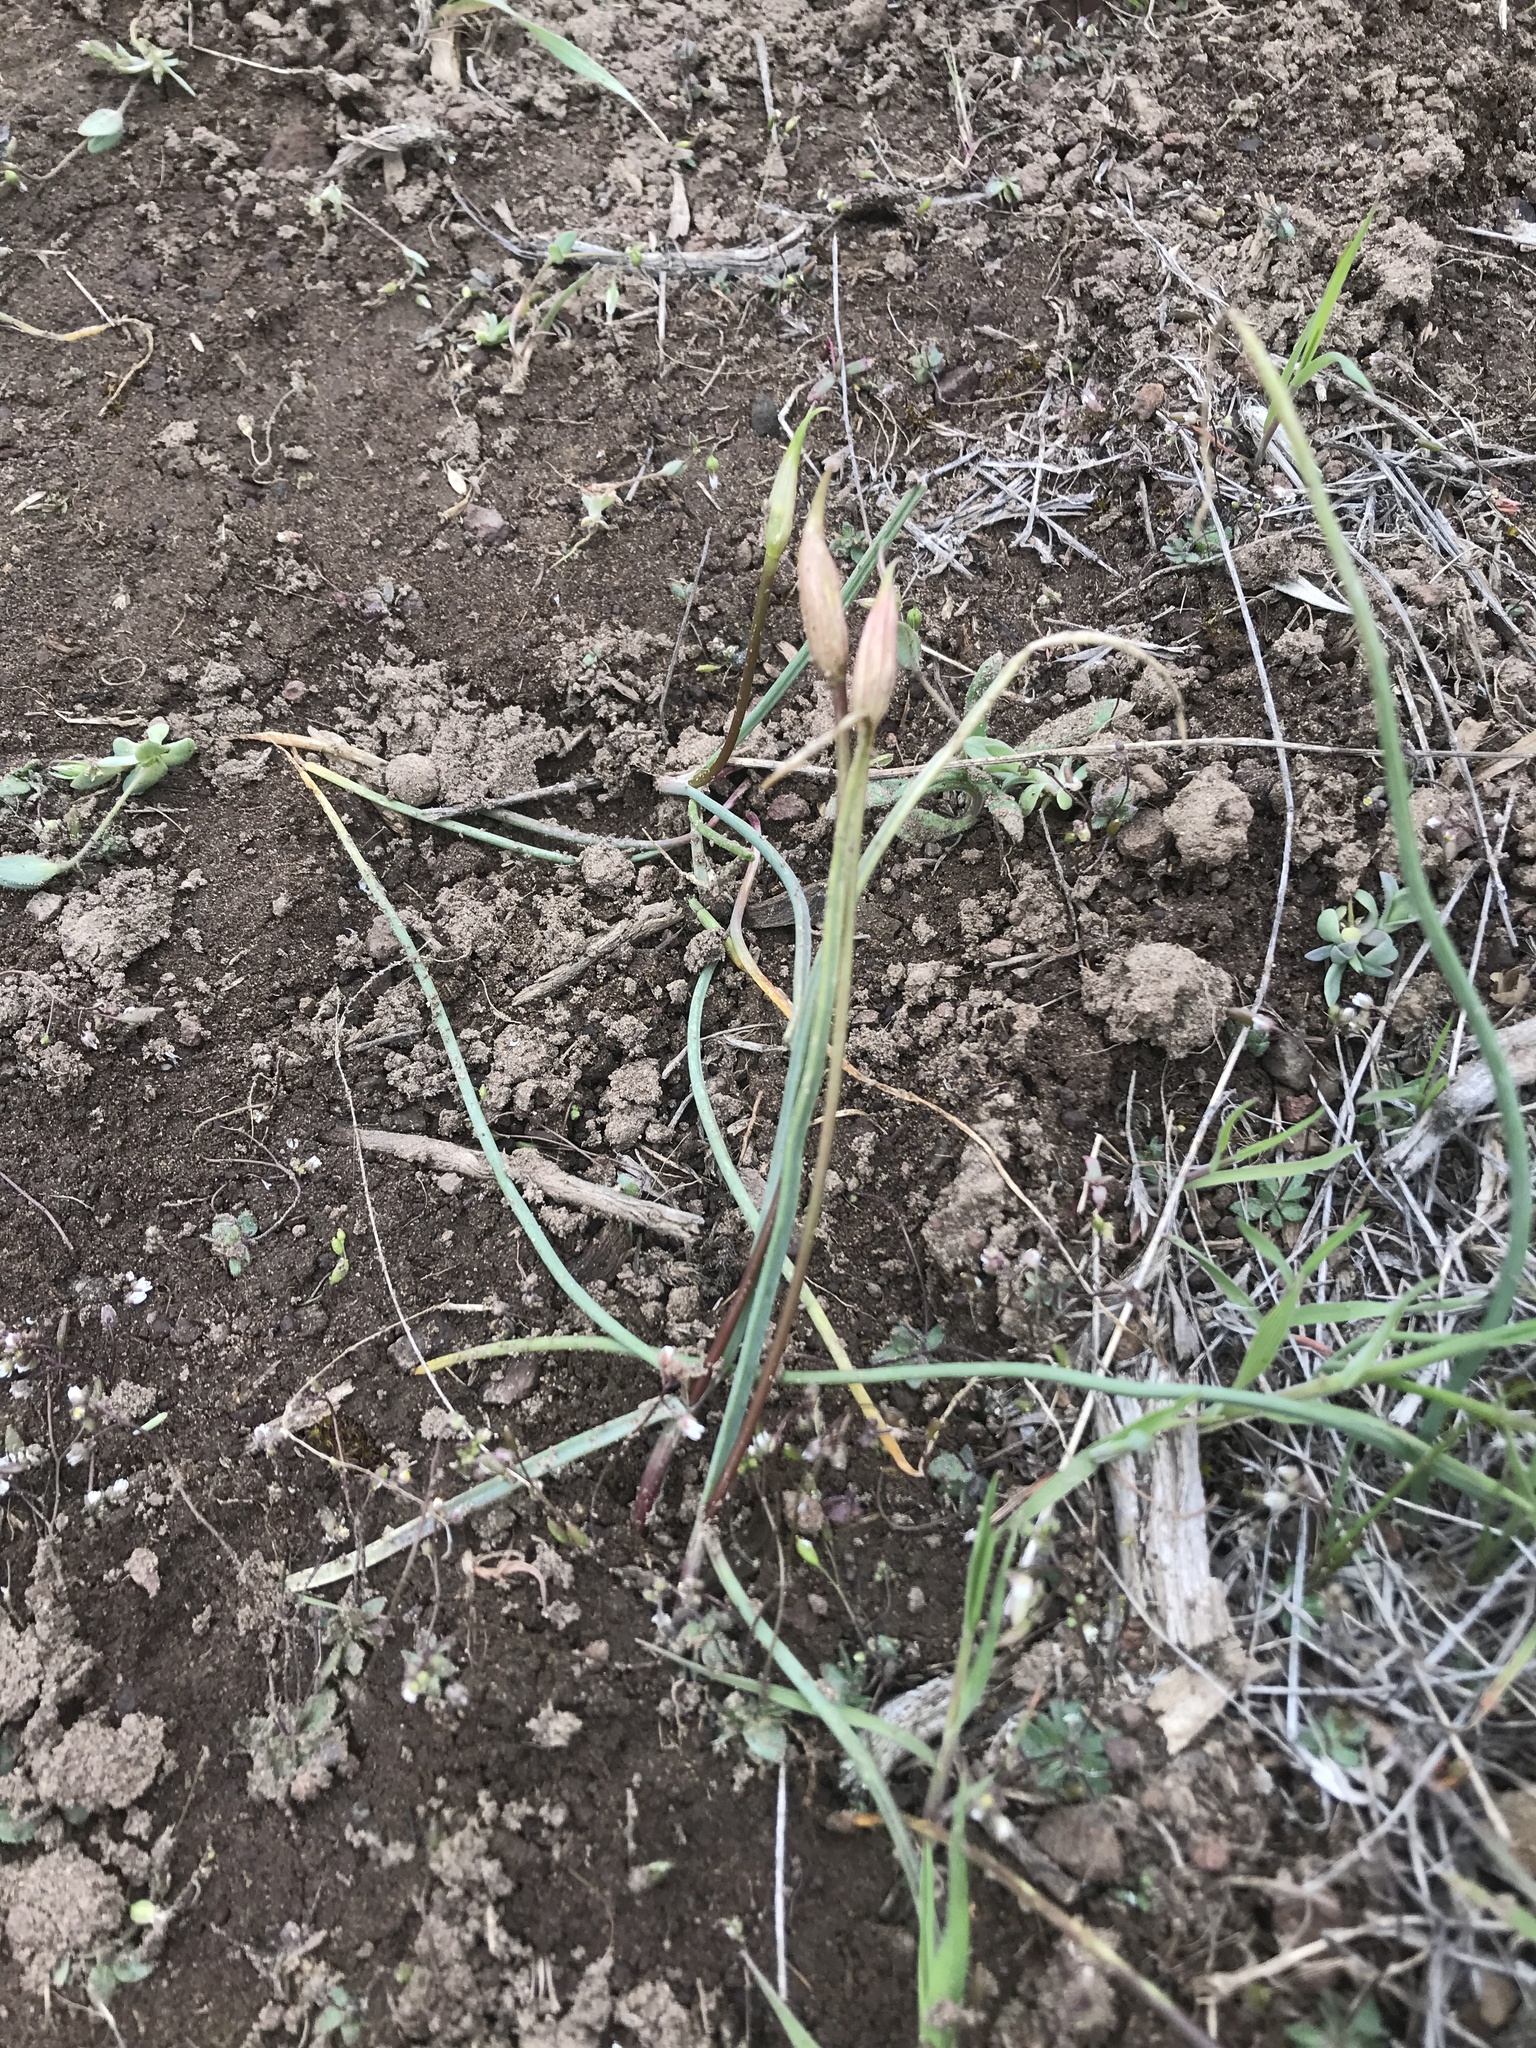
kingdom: Plantae
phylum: Tracheophyta
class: Liliopsida
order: Asparagales
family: Amaryllidaceae
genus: Allium
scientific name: Allium acuminatum
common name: Hooker's onion
